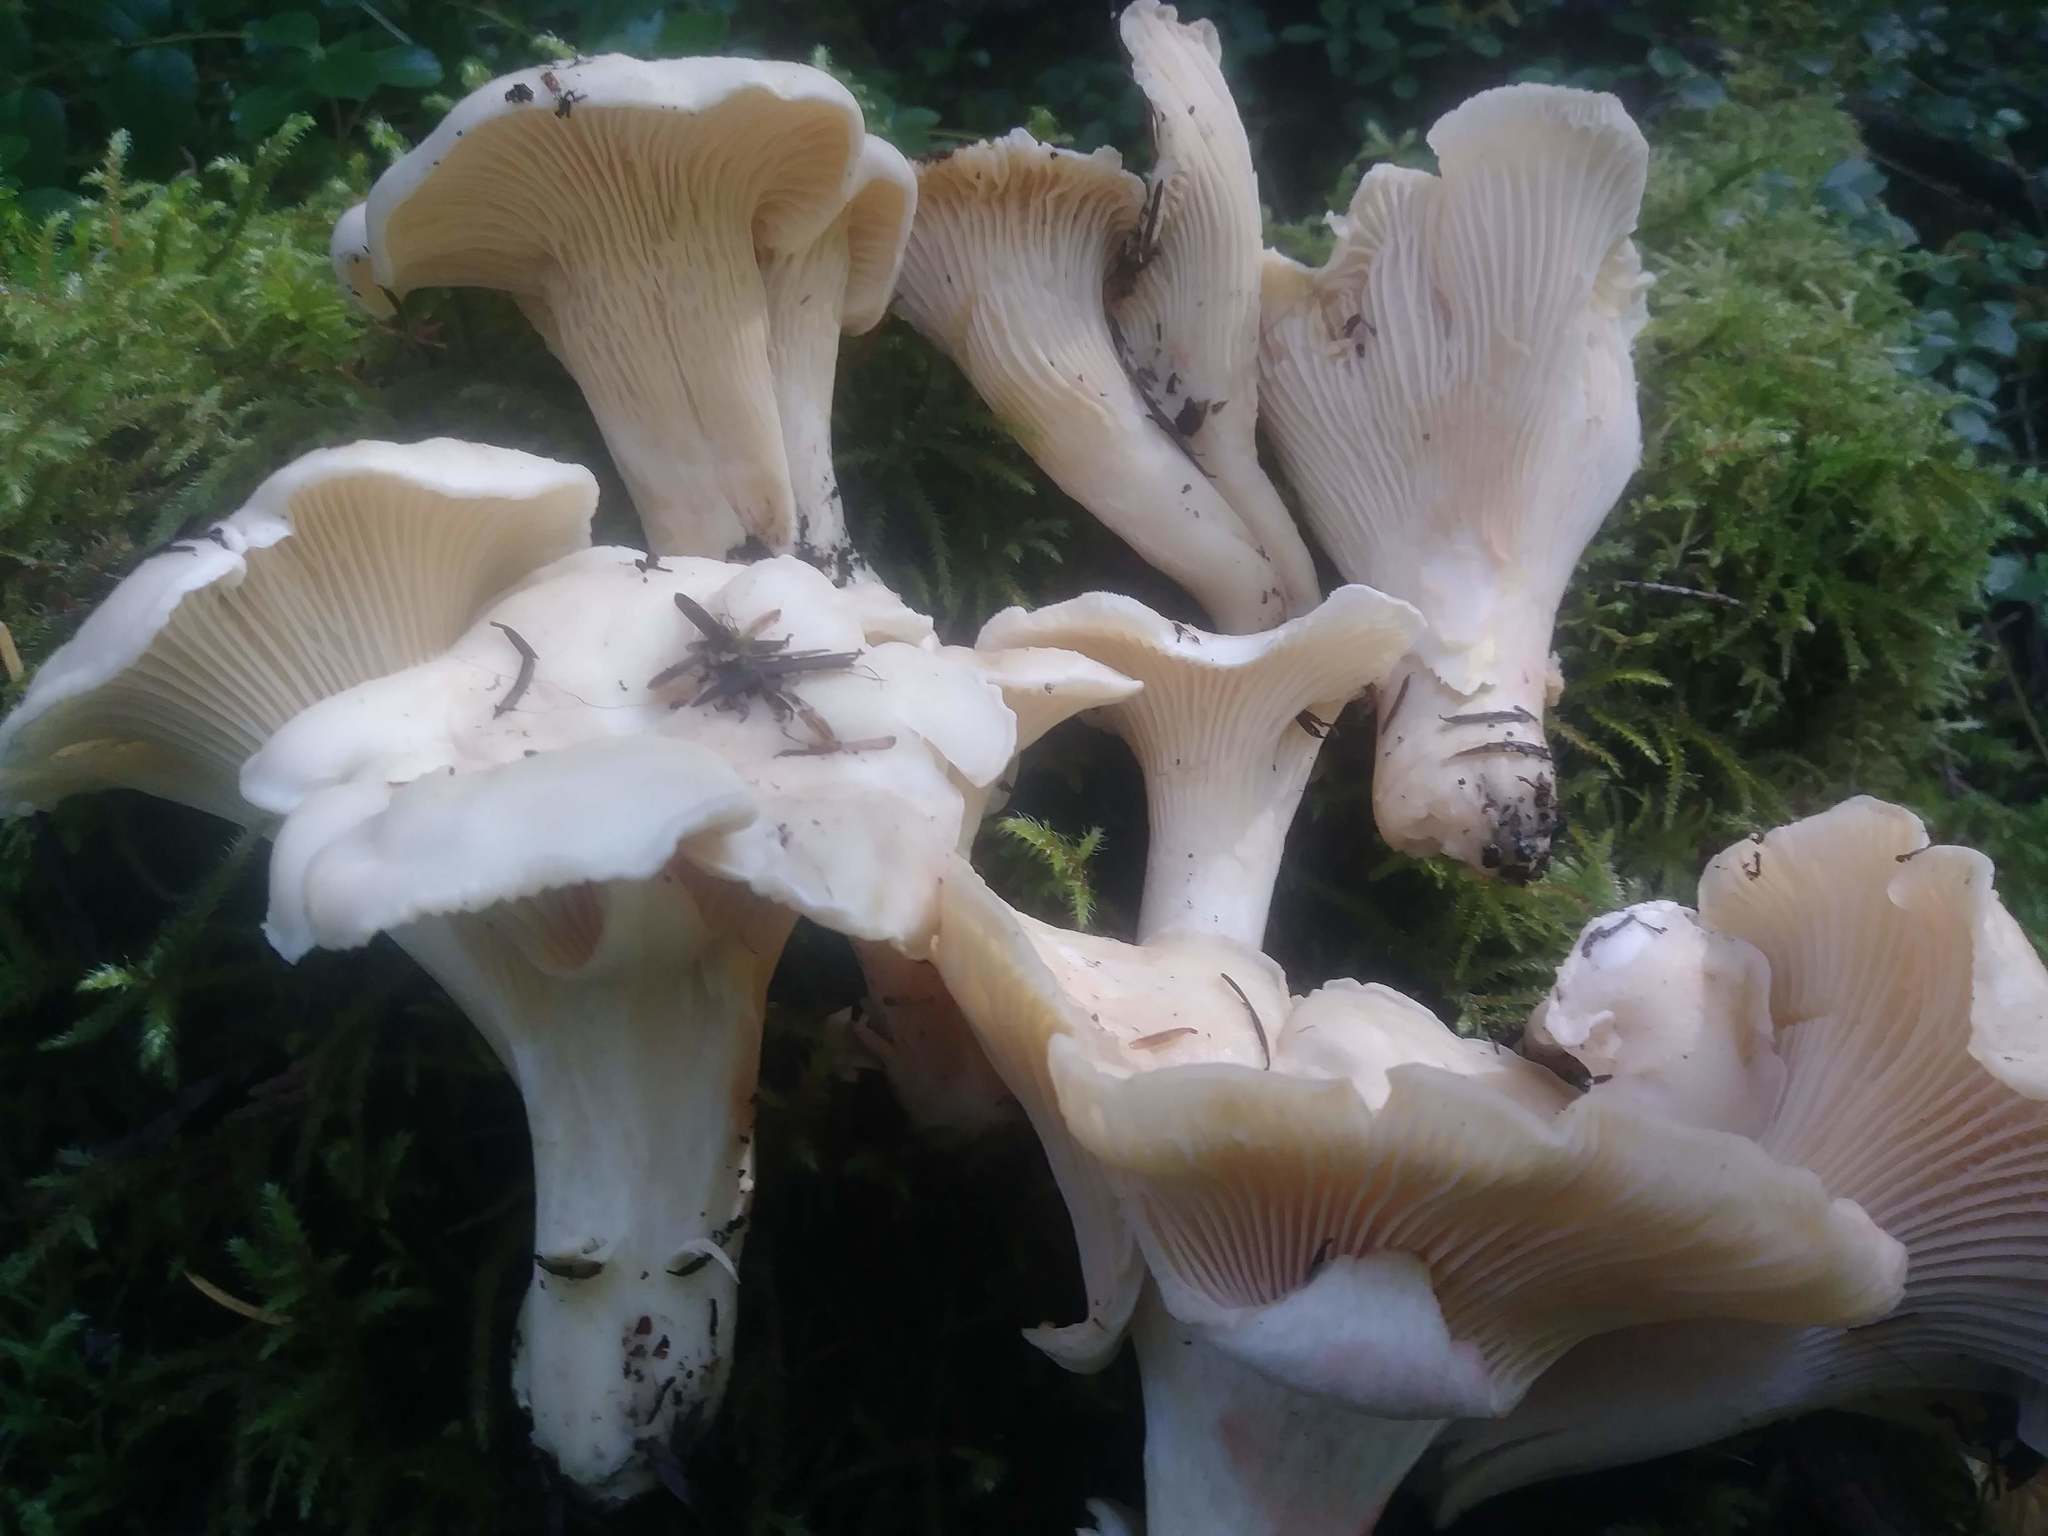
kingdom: Fungi
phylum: Basidiomycota
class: Agaricomycetes
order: Cantharellales
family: Hydnaceae
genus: Cantharellus
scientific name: Cantharellus subalbidus
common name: White chanterelle
